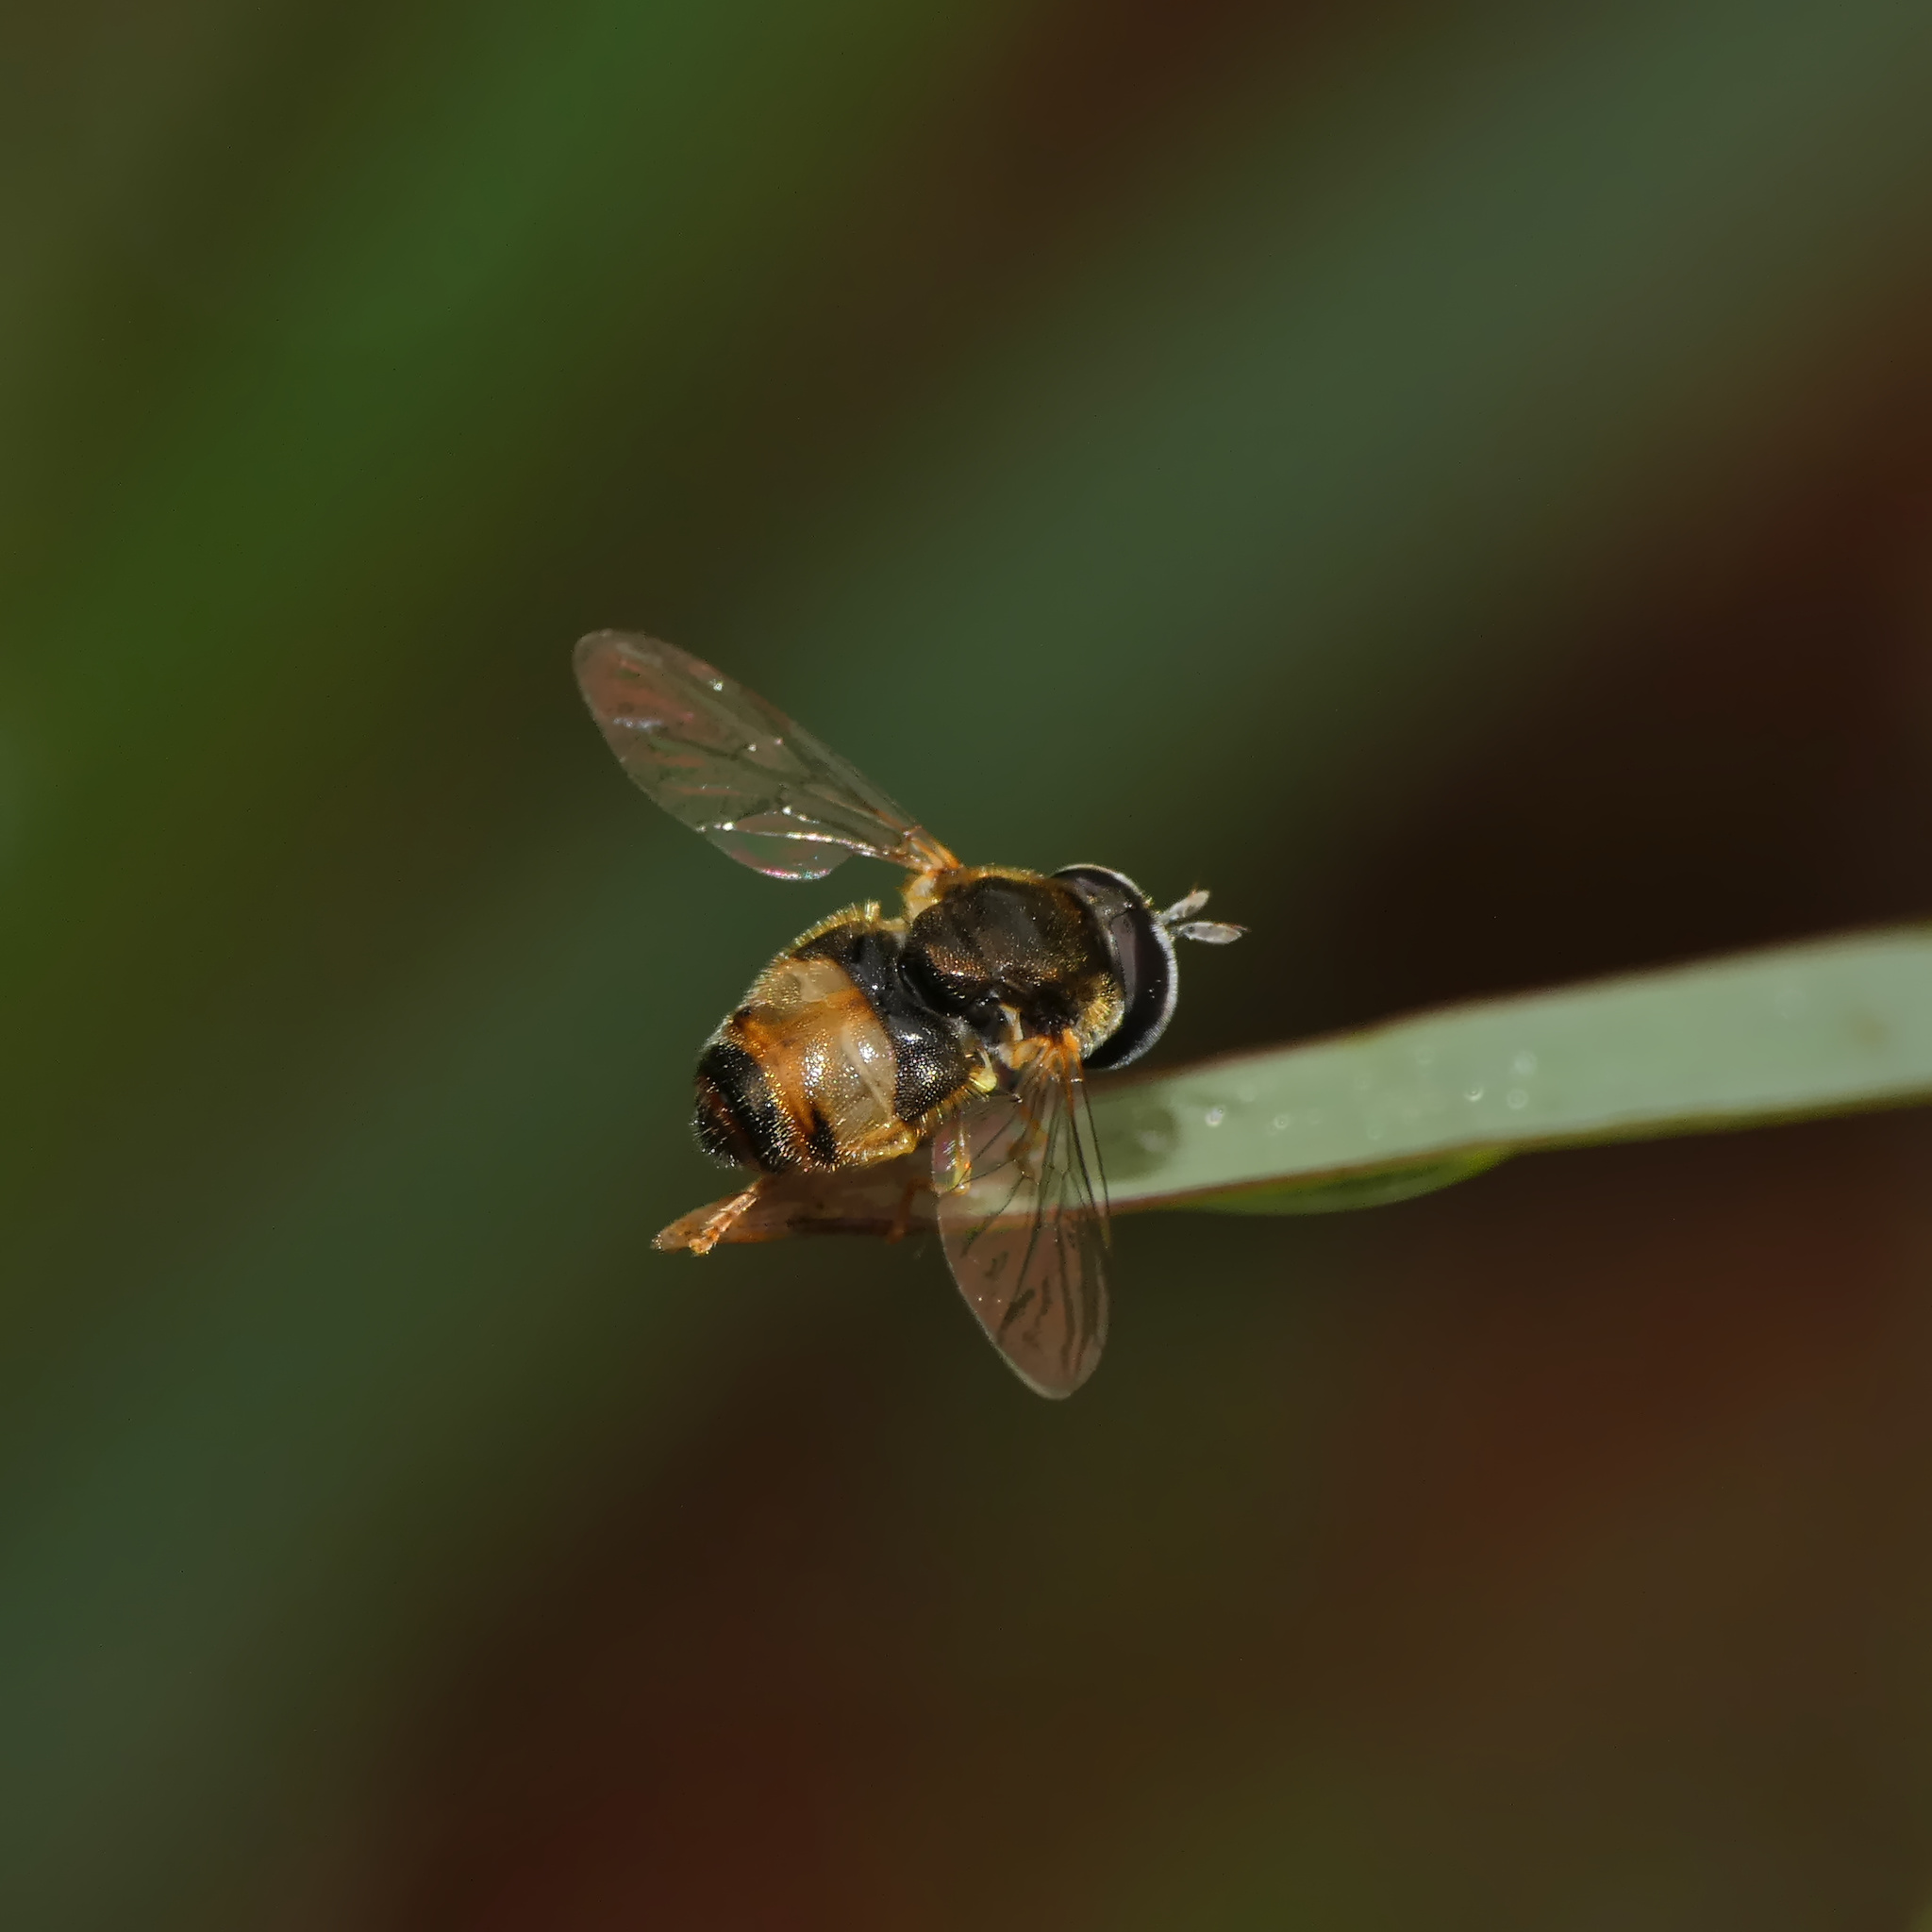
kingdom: Animalia
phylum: Arthropoda
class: Insecta
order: Diptera
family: Syrphidae
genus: Paragus
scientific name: Paragus borbonicus
